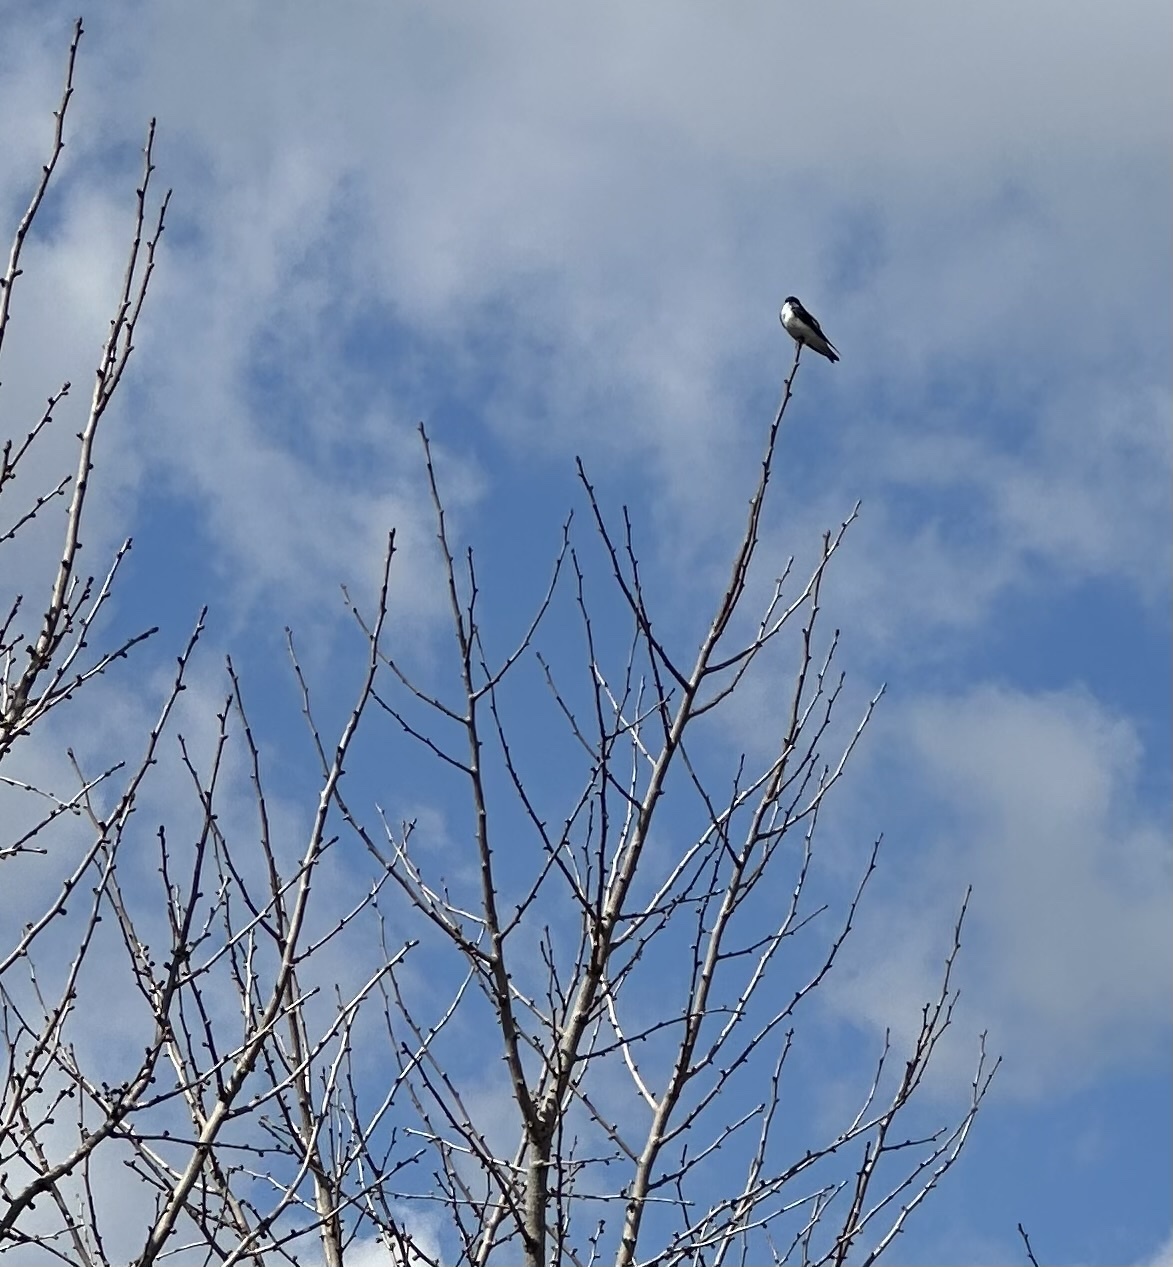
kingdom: Animalia
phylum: Chordata
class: Aves
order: Passeriformes
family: Hirundinidae
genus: Tachycineta
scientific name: Tachycineta bicolor
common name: Tree swallow
